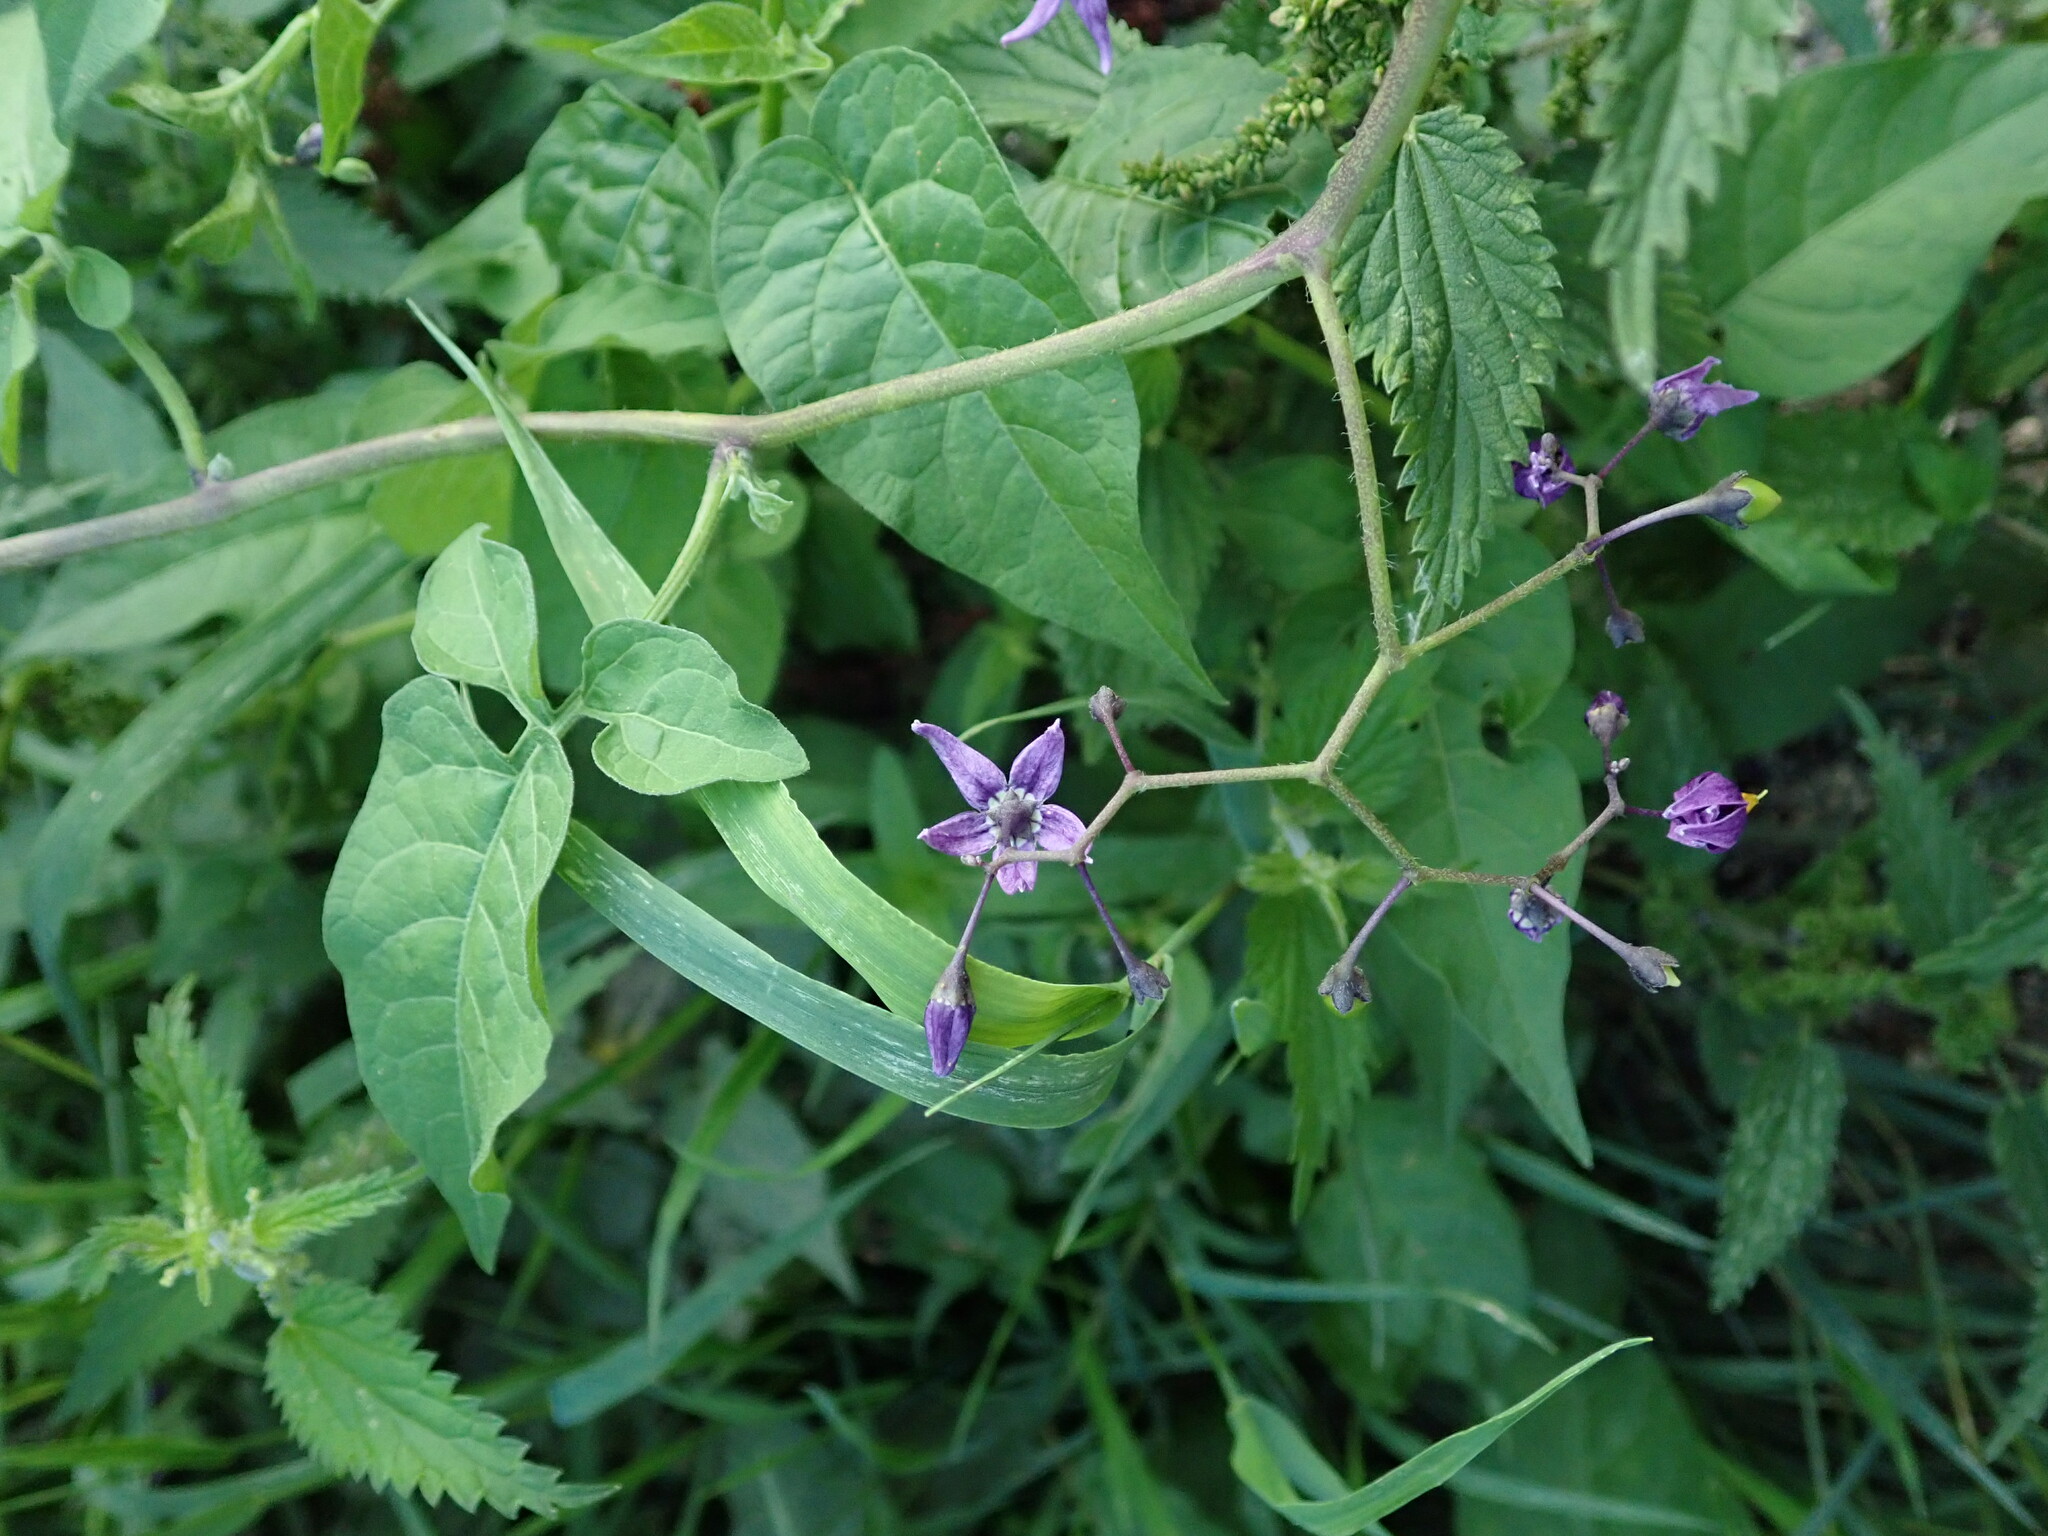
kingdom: Plantae
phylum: Tracheophyta
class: Magnoliopsida
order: Solanales
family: Solanaceae
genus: Solanum
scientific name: Solanum dulcamara
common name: Climbing nightshade
